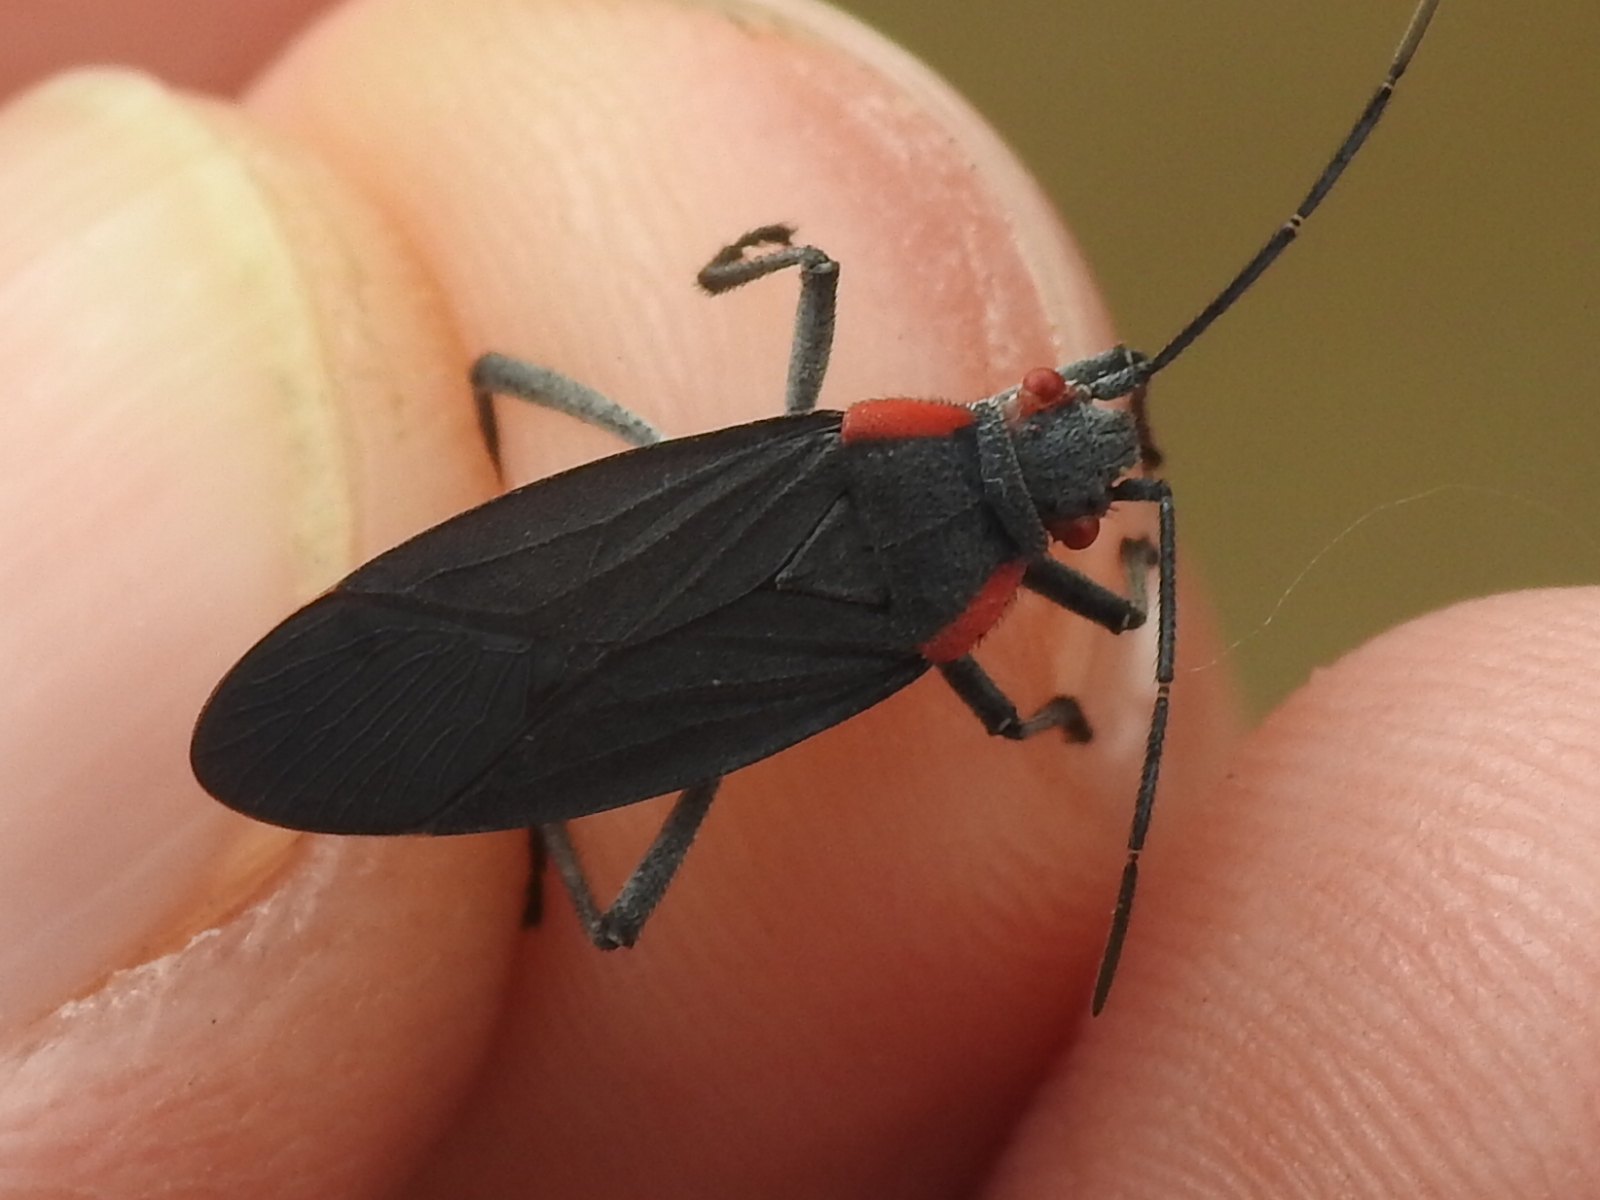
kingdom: Animalia
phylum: Arthropoda
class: Insecta
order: Hemiptera
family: Rhopalidae
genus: Jadera
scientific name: Jadera haematoloma
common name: Red-shouldered bug
